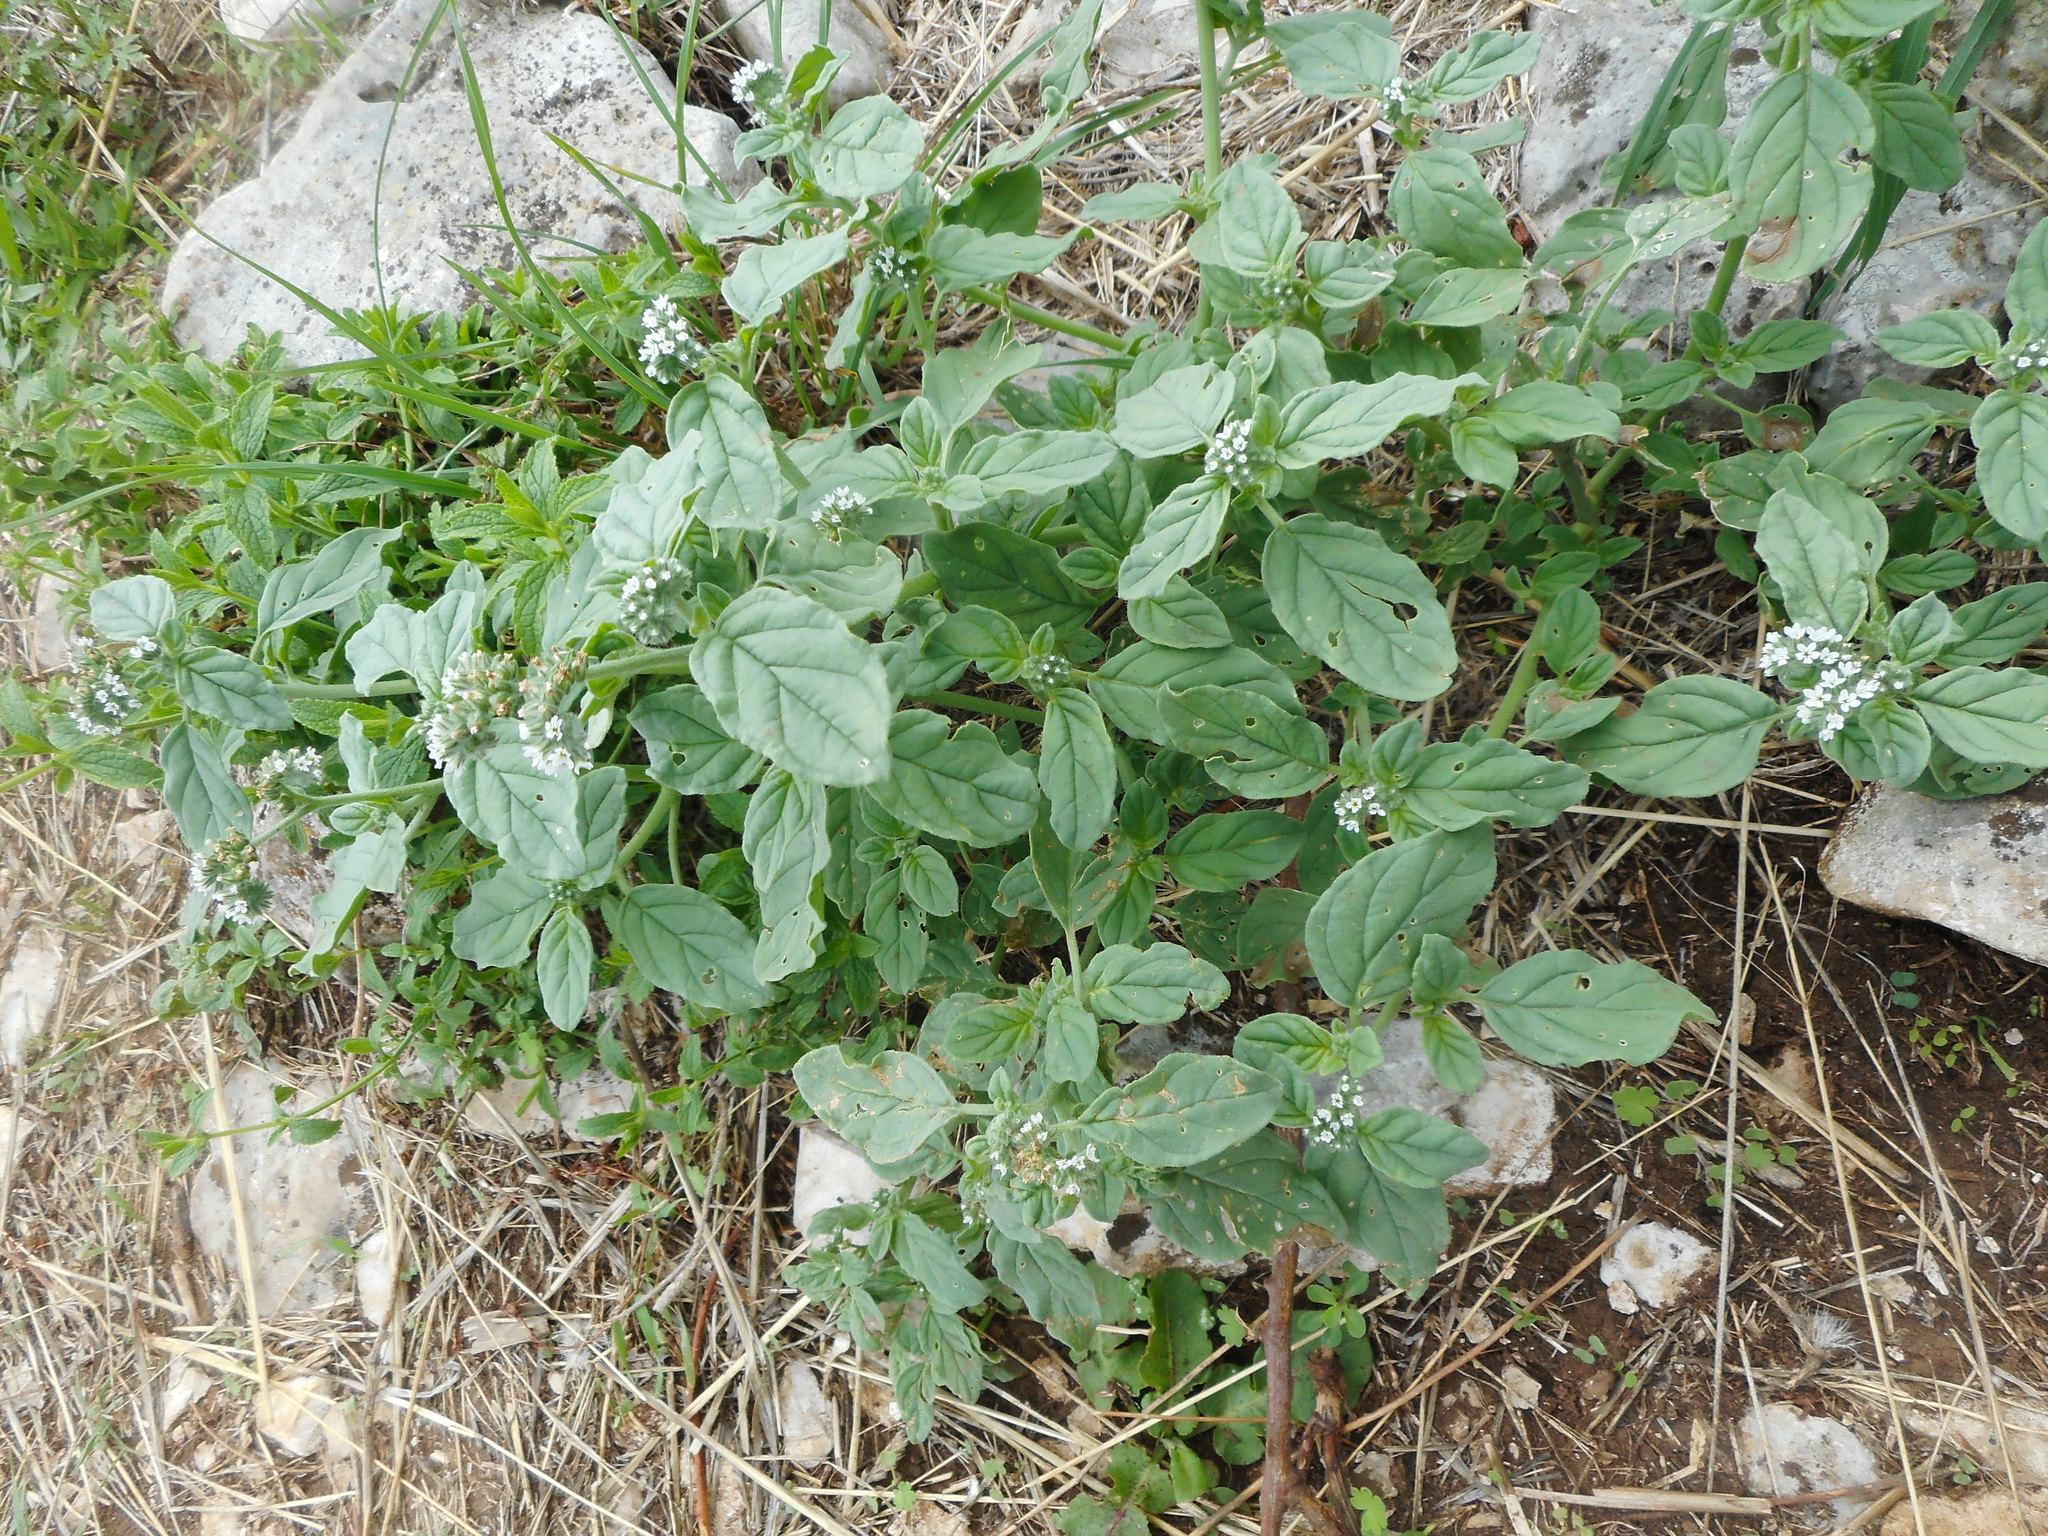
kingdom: Plantae
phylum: Tracheophyta
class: Magnoliopsida
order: Boraginales
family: Heliotropiaceae
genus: Heliotropium
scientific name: Heliotropium europaeum
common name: European heliotrope
